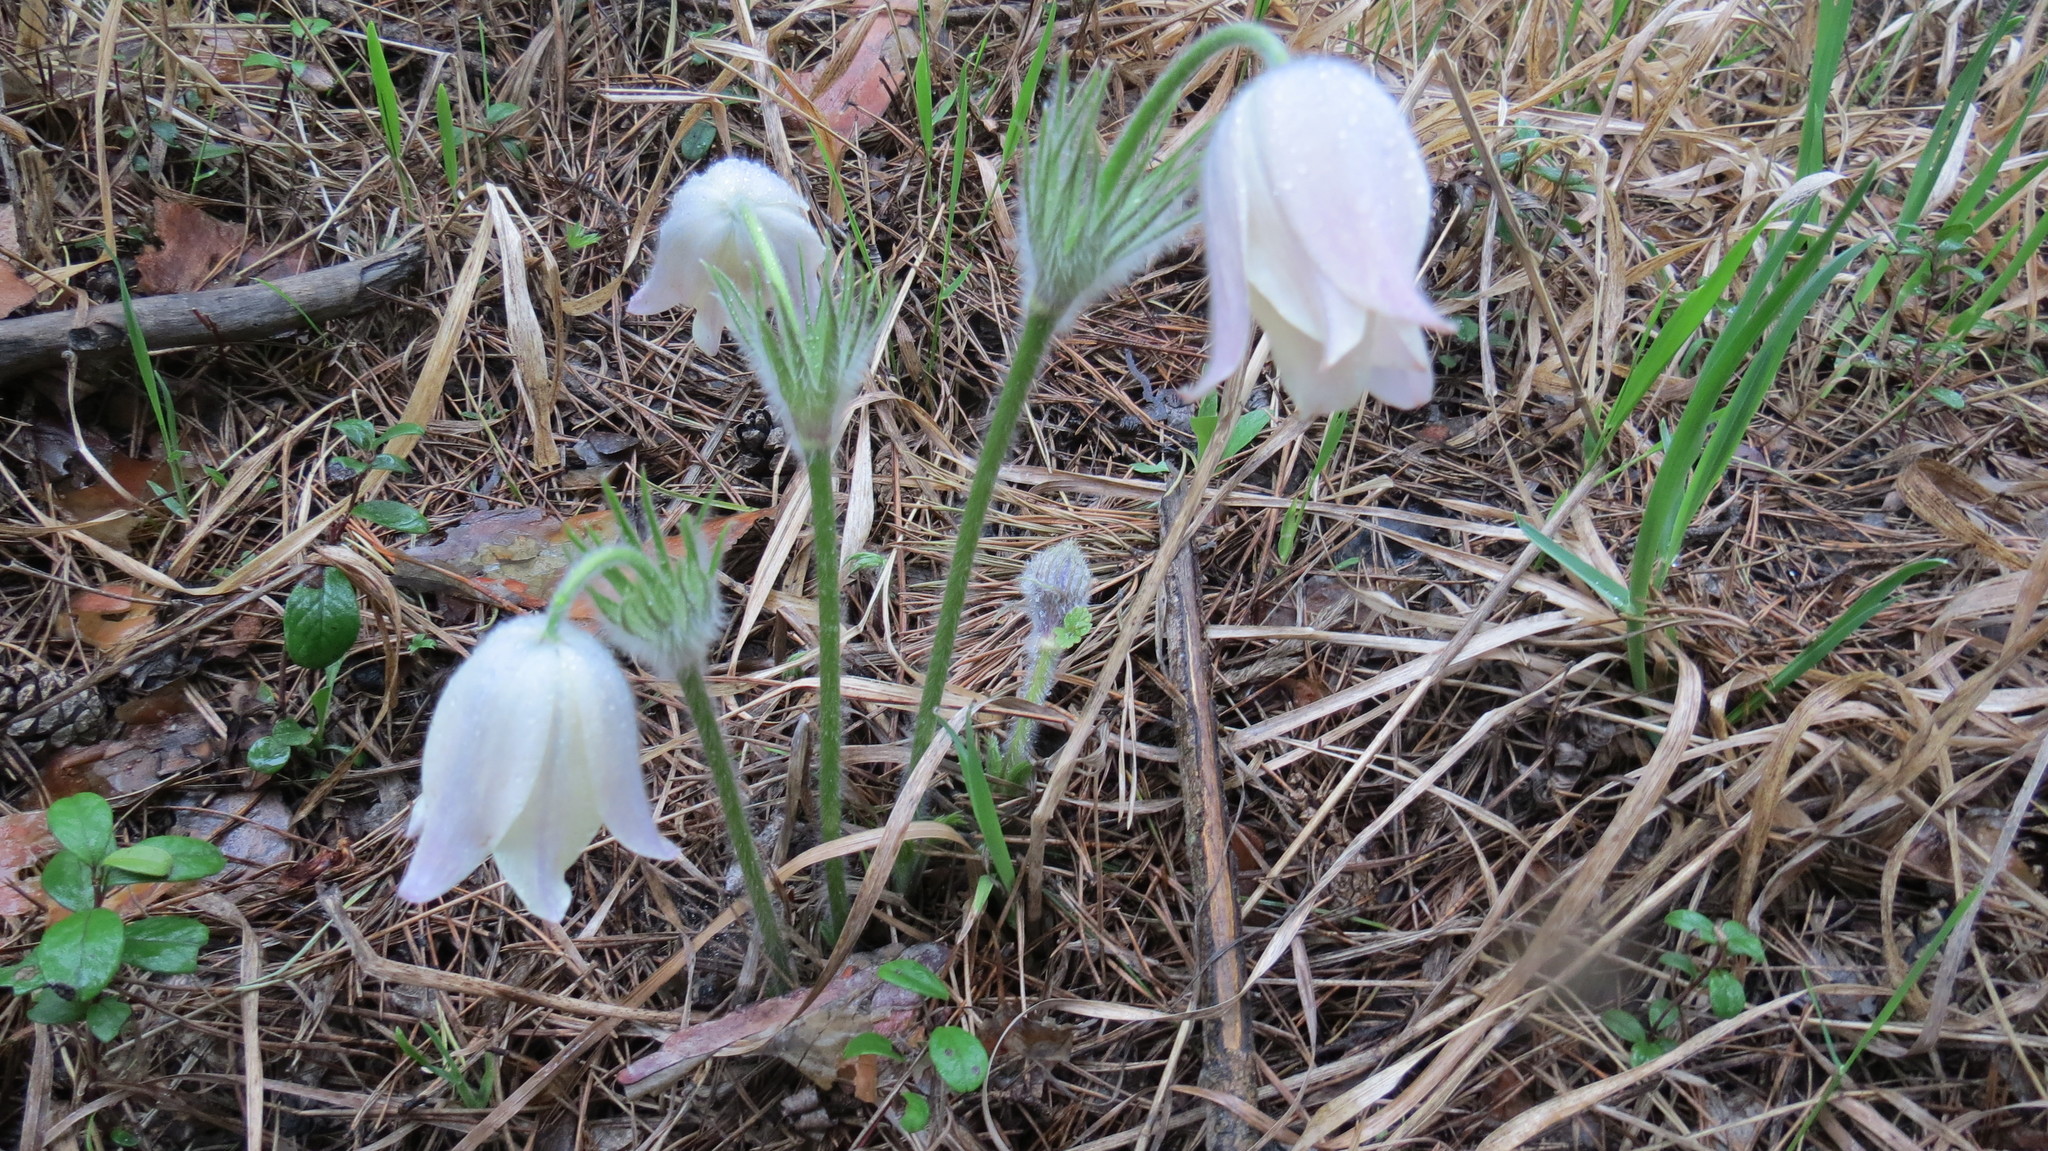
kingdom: Plantae
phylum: Tracheophyta
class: Magnoliopsida
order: Ranunculales
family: Ranunculaceae
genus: Pulsatilla
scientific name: Pulsatilla patens
